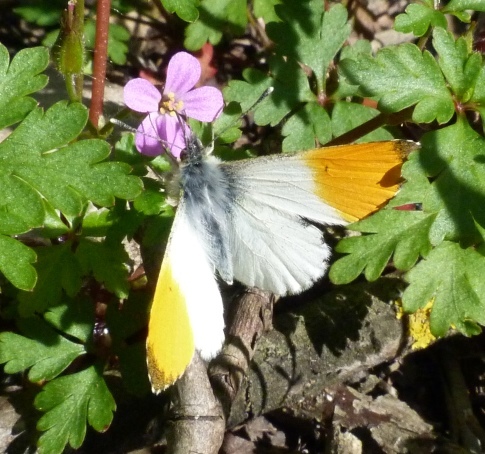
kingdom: Animalia
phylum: Arthropoda
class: Insecta
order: Lepidoptera
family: Pieridae
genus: Anthocharis
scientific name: Anthocharis cardamines
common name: Orange-tip
